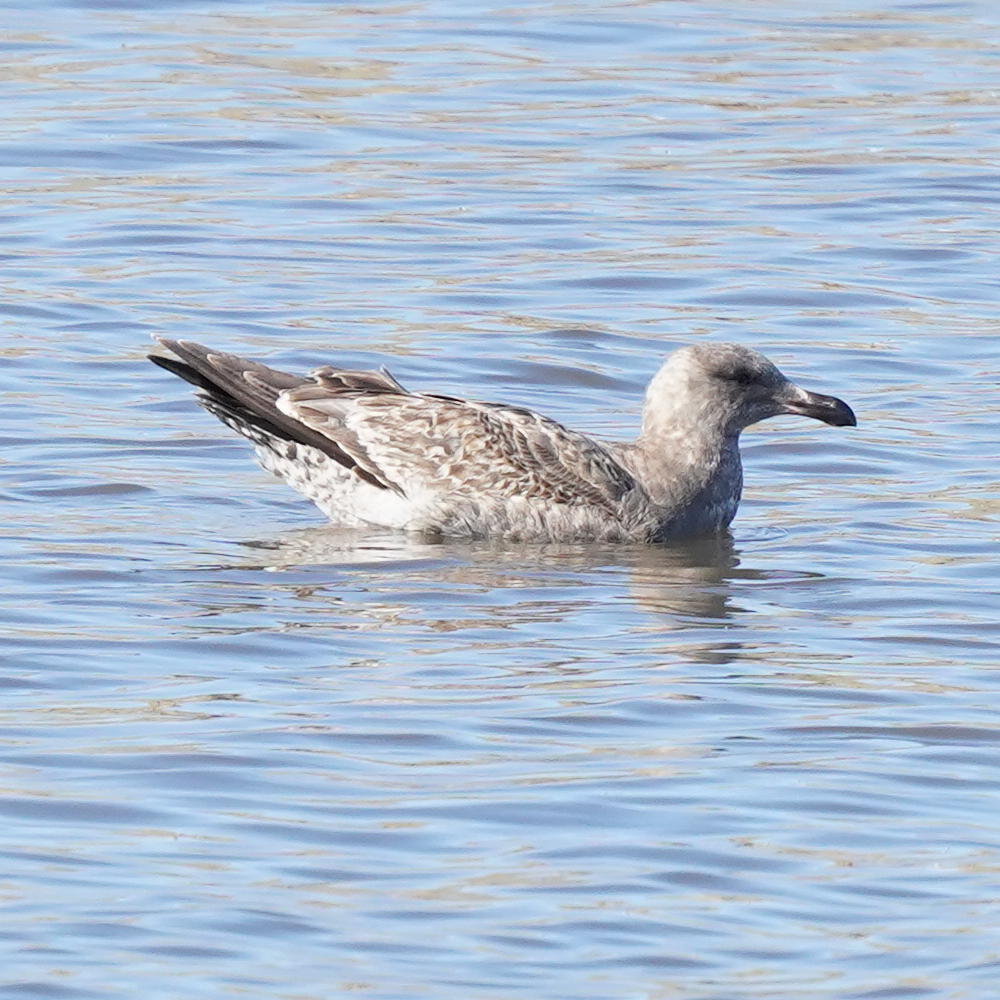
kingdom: Animalia
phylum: Chordata
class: Aves
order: Charadriiformes
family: Laridae
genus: Larus
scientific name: Larus occidentalis
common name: Western gull
